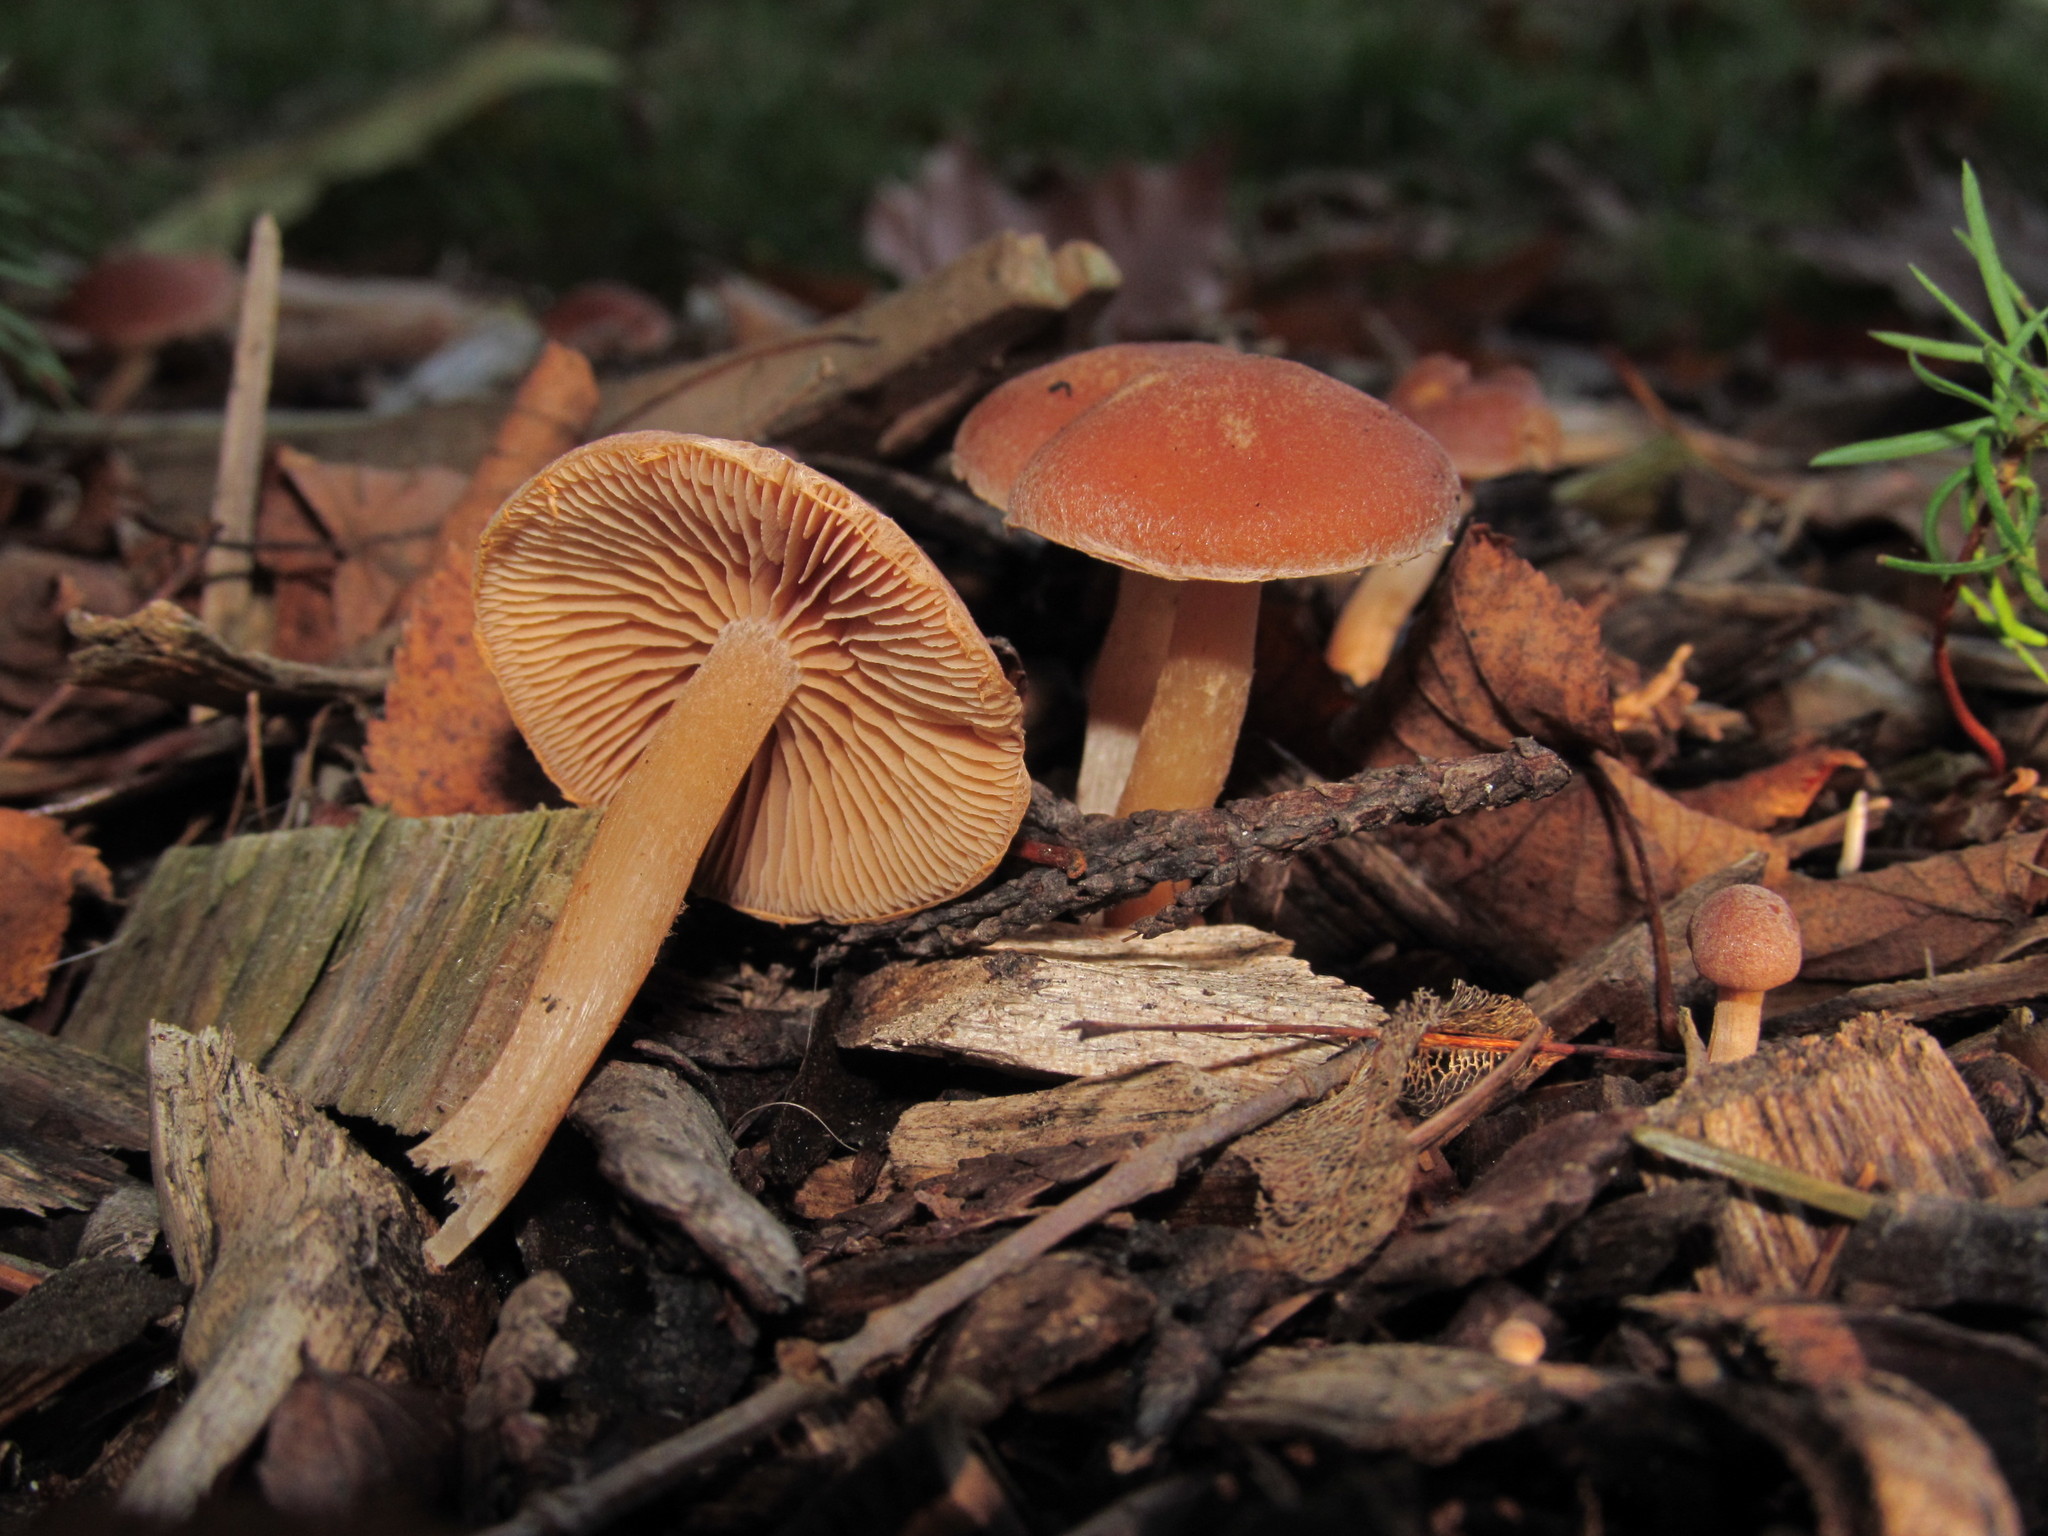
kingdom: Fungi
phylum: Basidiomycota
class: Agaricomycetes
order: Agaricales
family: Tubariaceae
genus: Tubaria
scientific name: Tubaria furfuracea
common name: Scurfy twiglet
